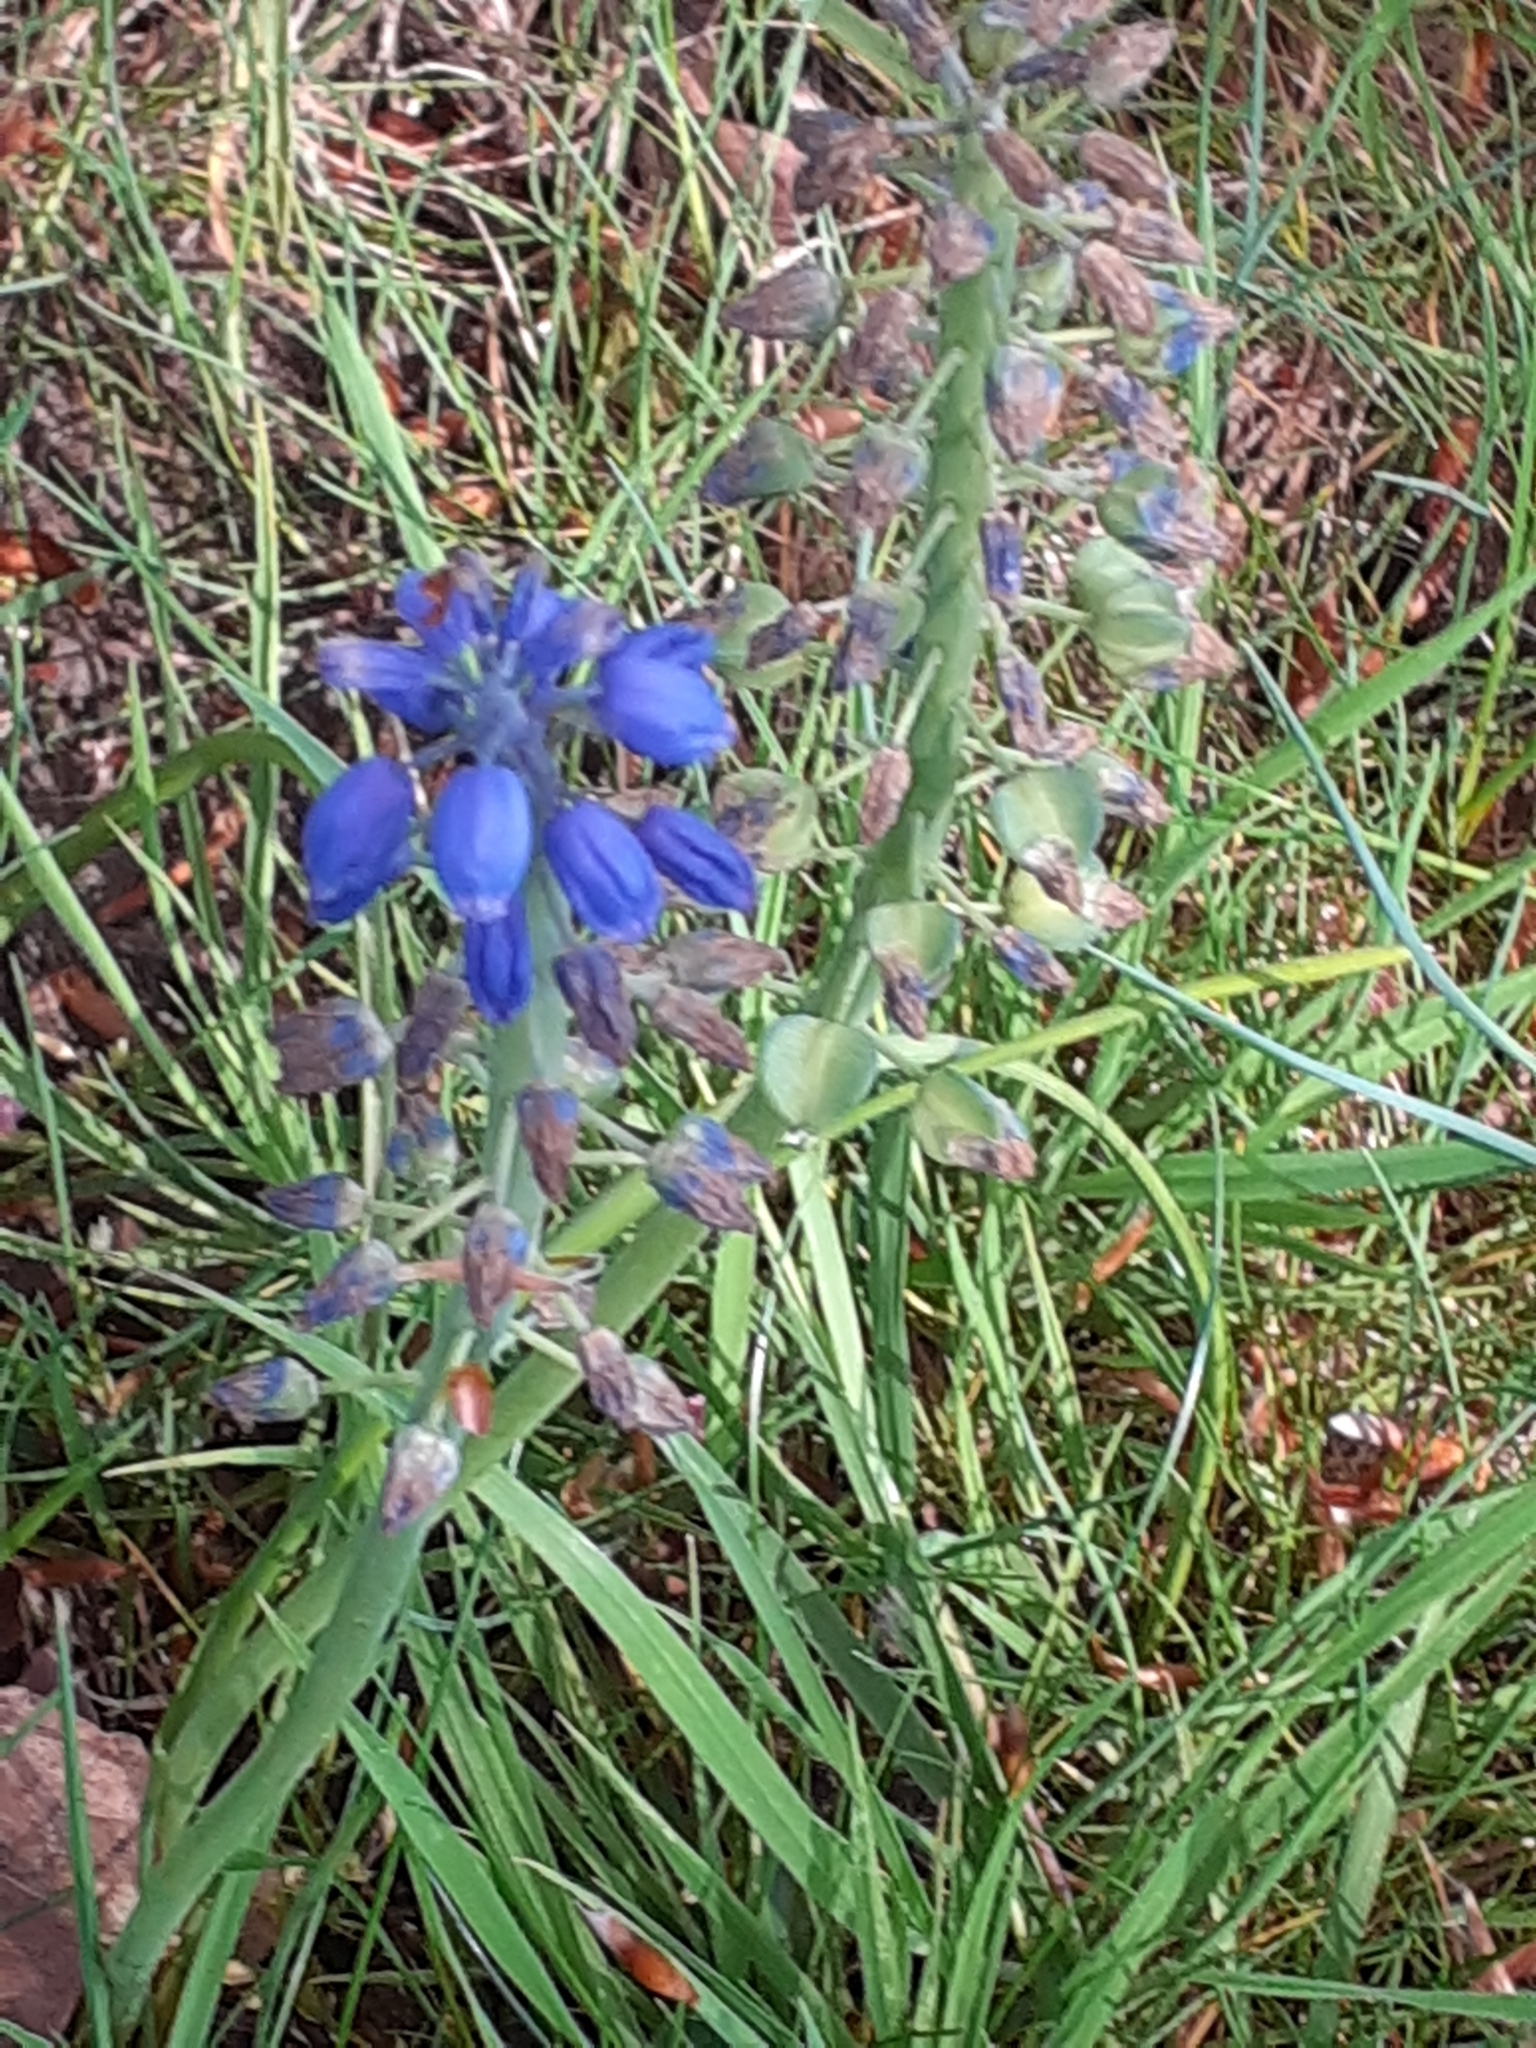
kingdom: Plantae
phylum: Tracheophyta
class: Liliopsida
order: Asparagales
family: Asparagaceae
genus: Muscari
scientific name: Muscari armeniacum
